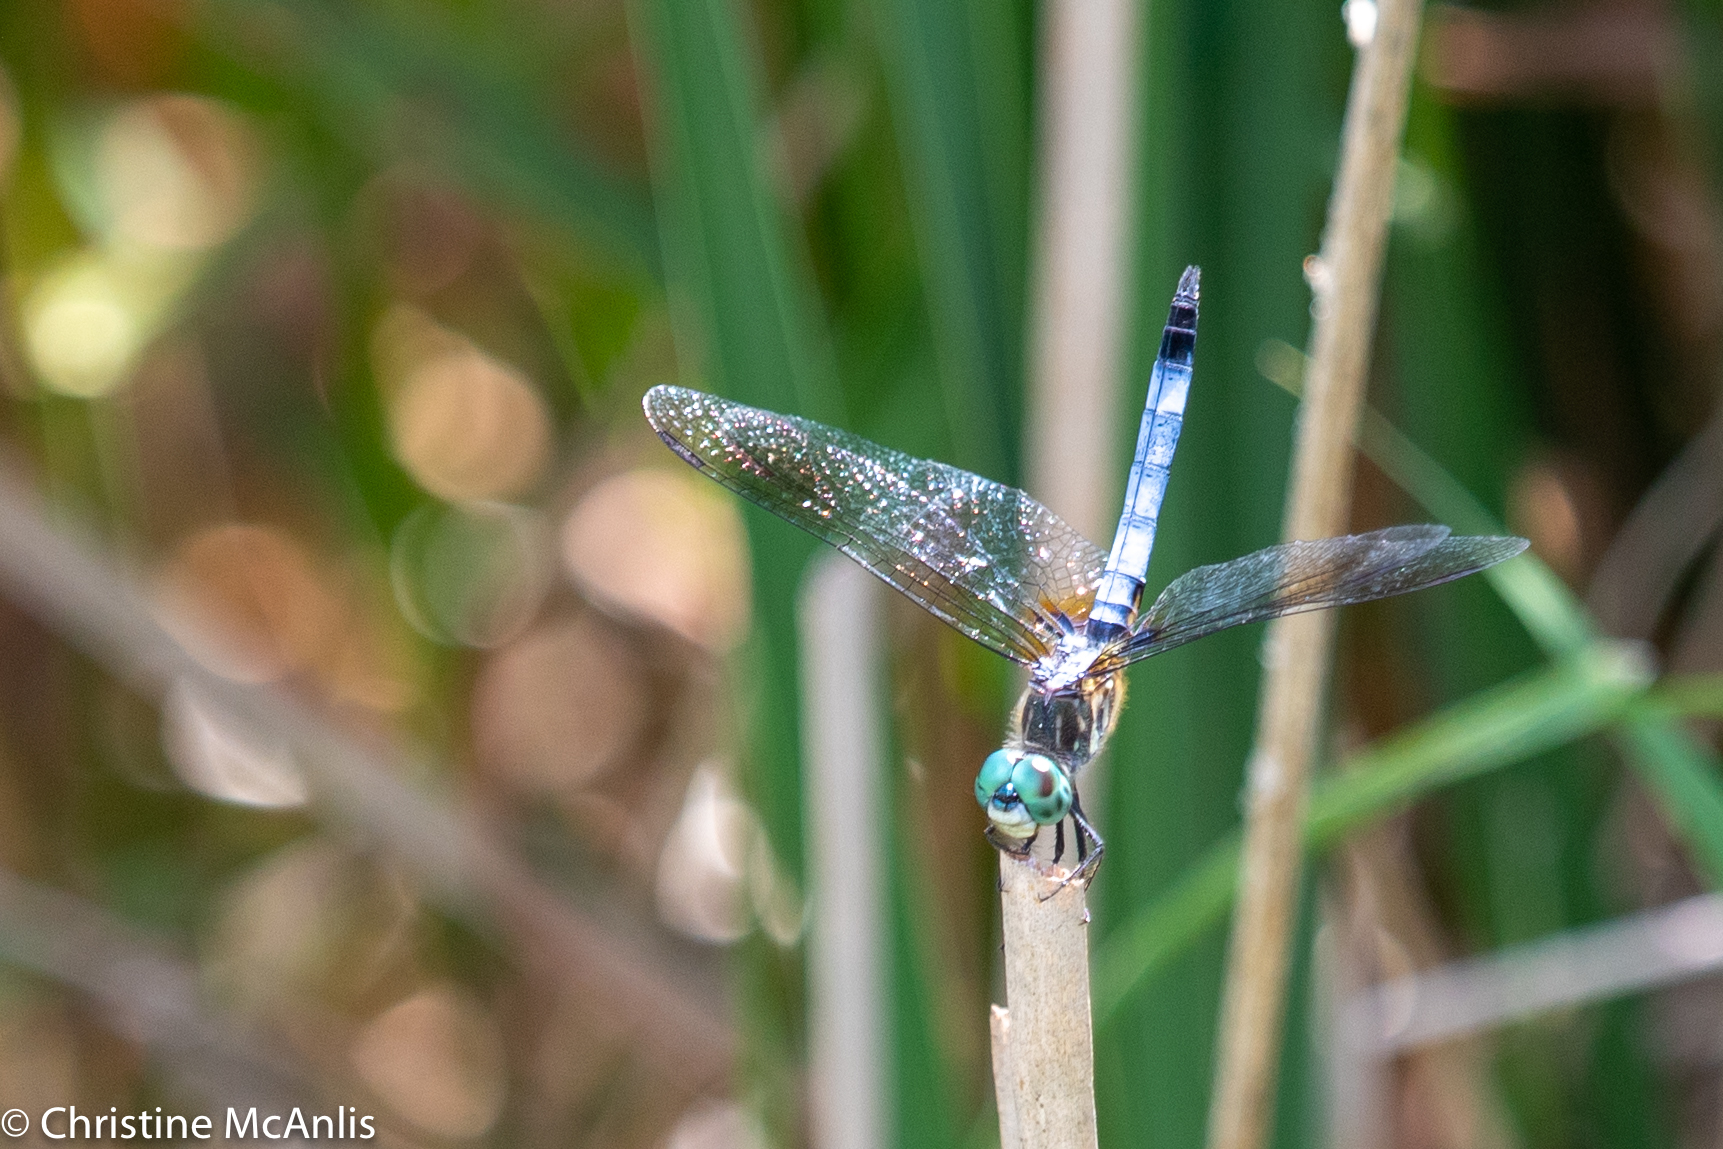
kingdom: Animalia
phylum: Arthropoda
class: Insecta
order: Odonata
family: Libellulidae
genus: Pachydiplax
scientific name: Pachydiplax longipennis
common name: Blue dasher
